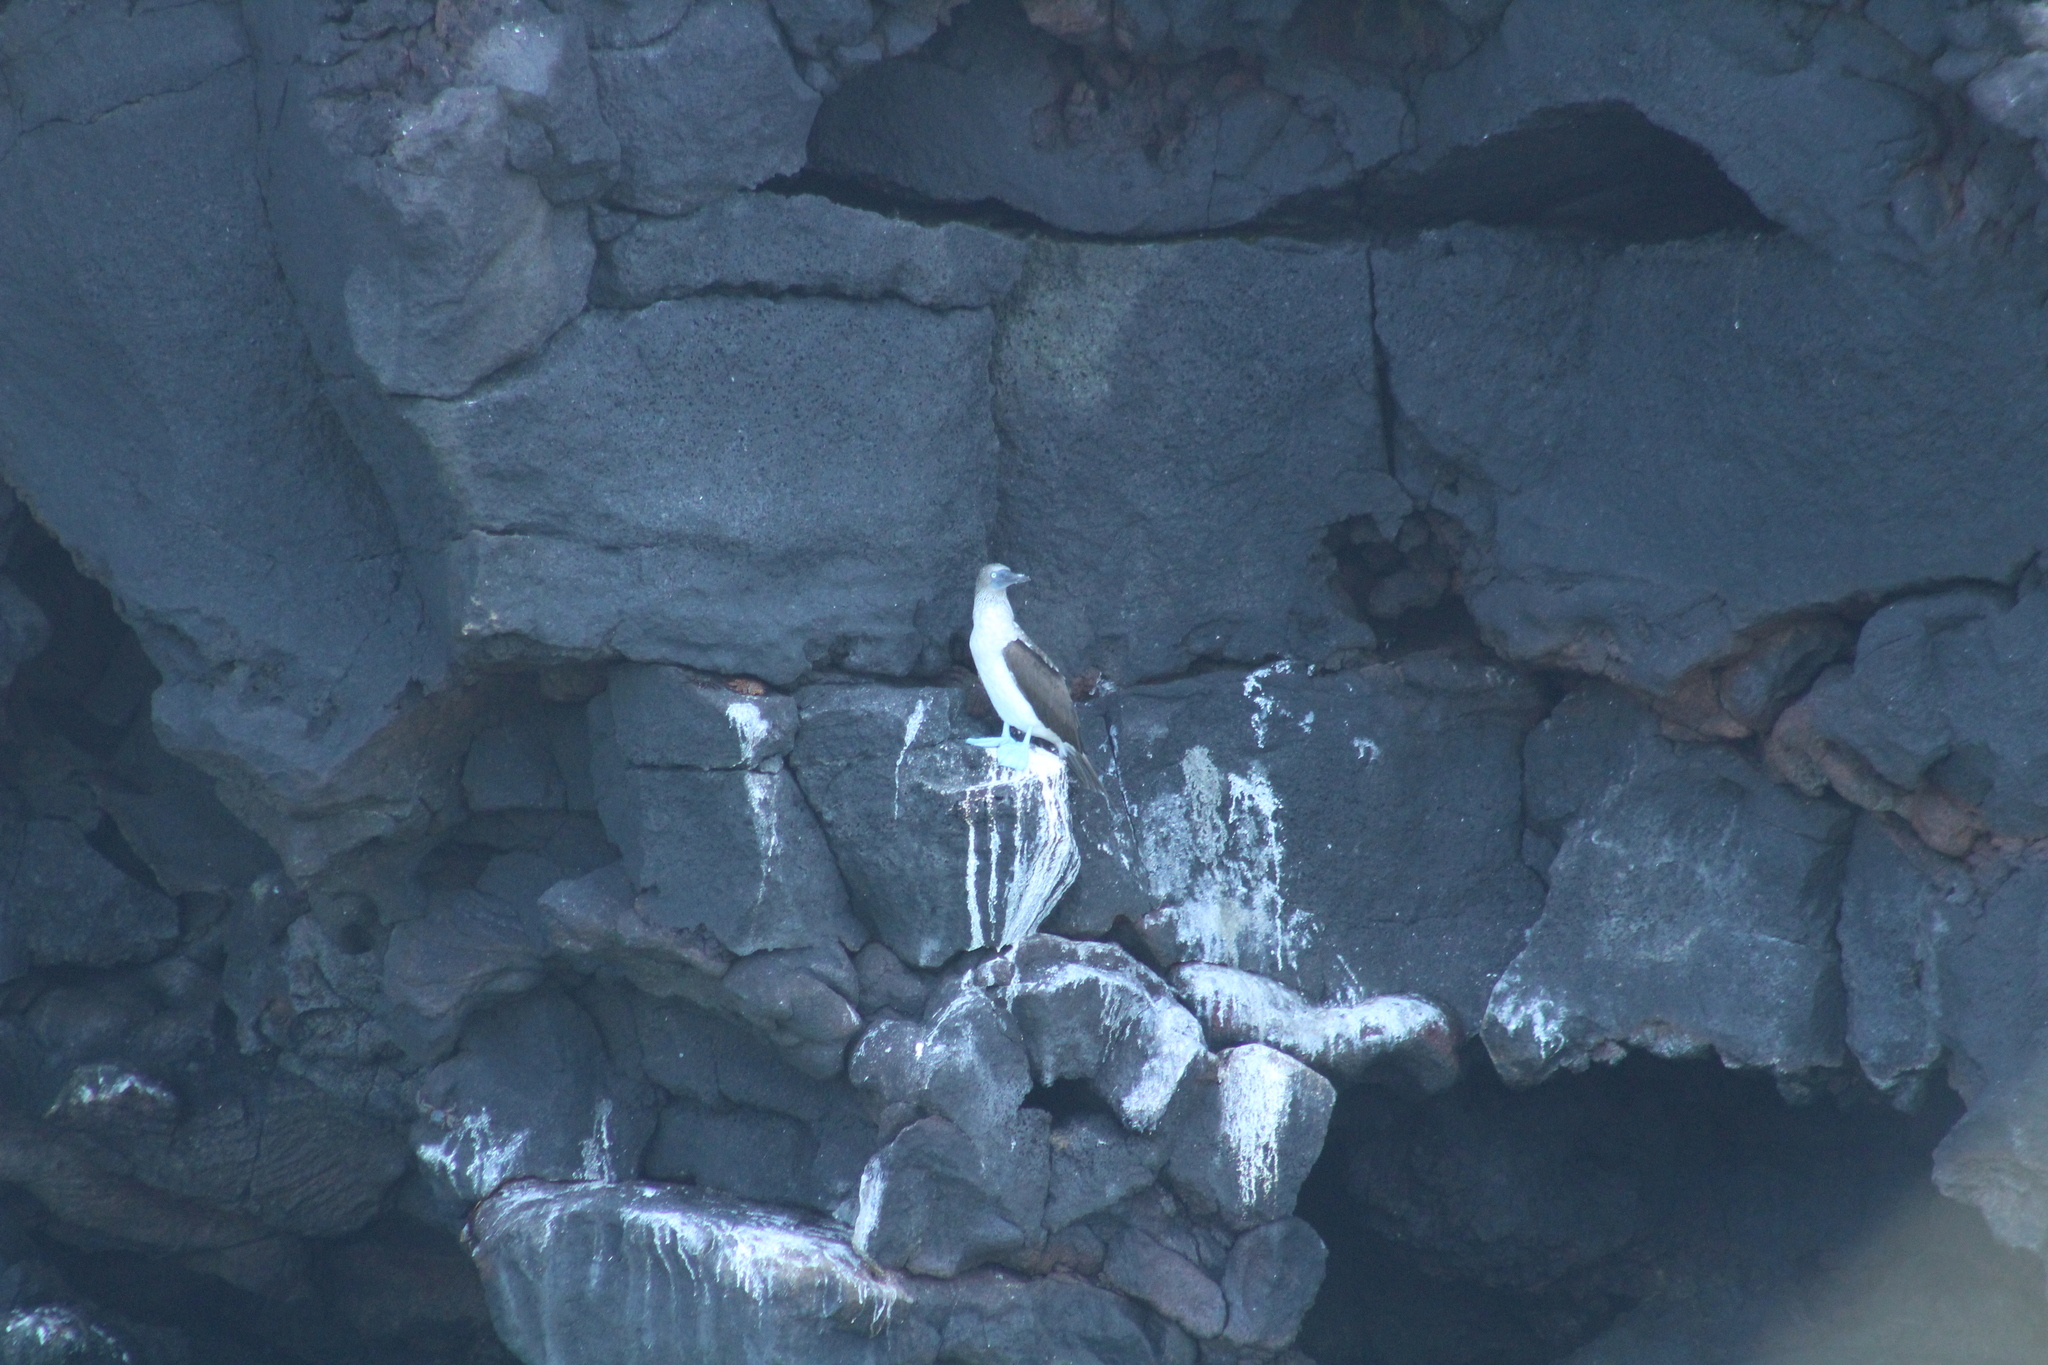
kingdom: Animalia
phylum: Chordata
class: Aves
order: Suliformes
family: Sulidae
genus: Sula
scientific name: Sula nebouxii
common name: Blue-footed booby
